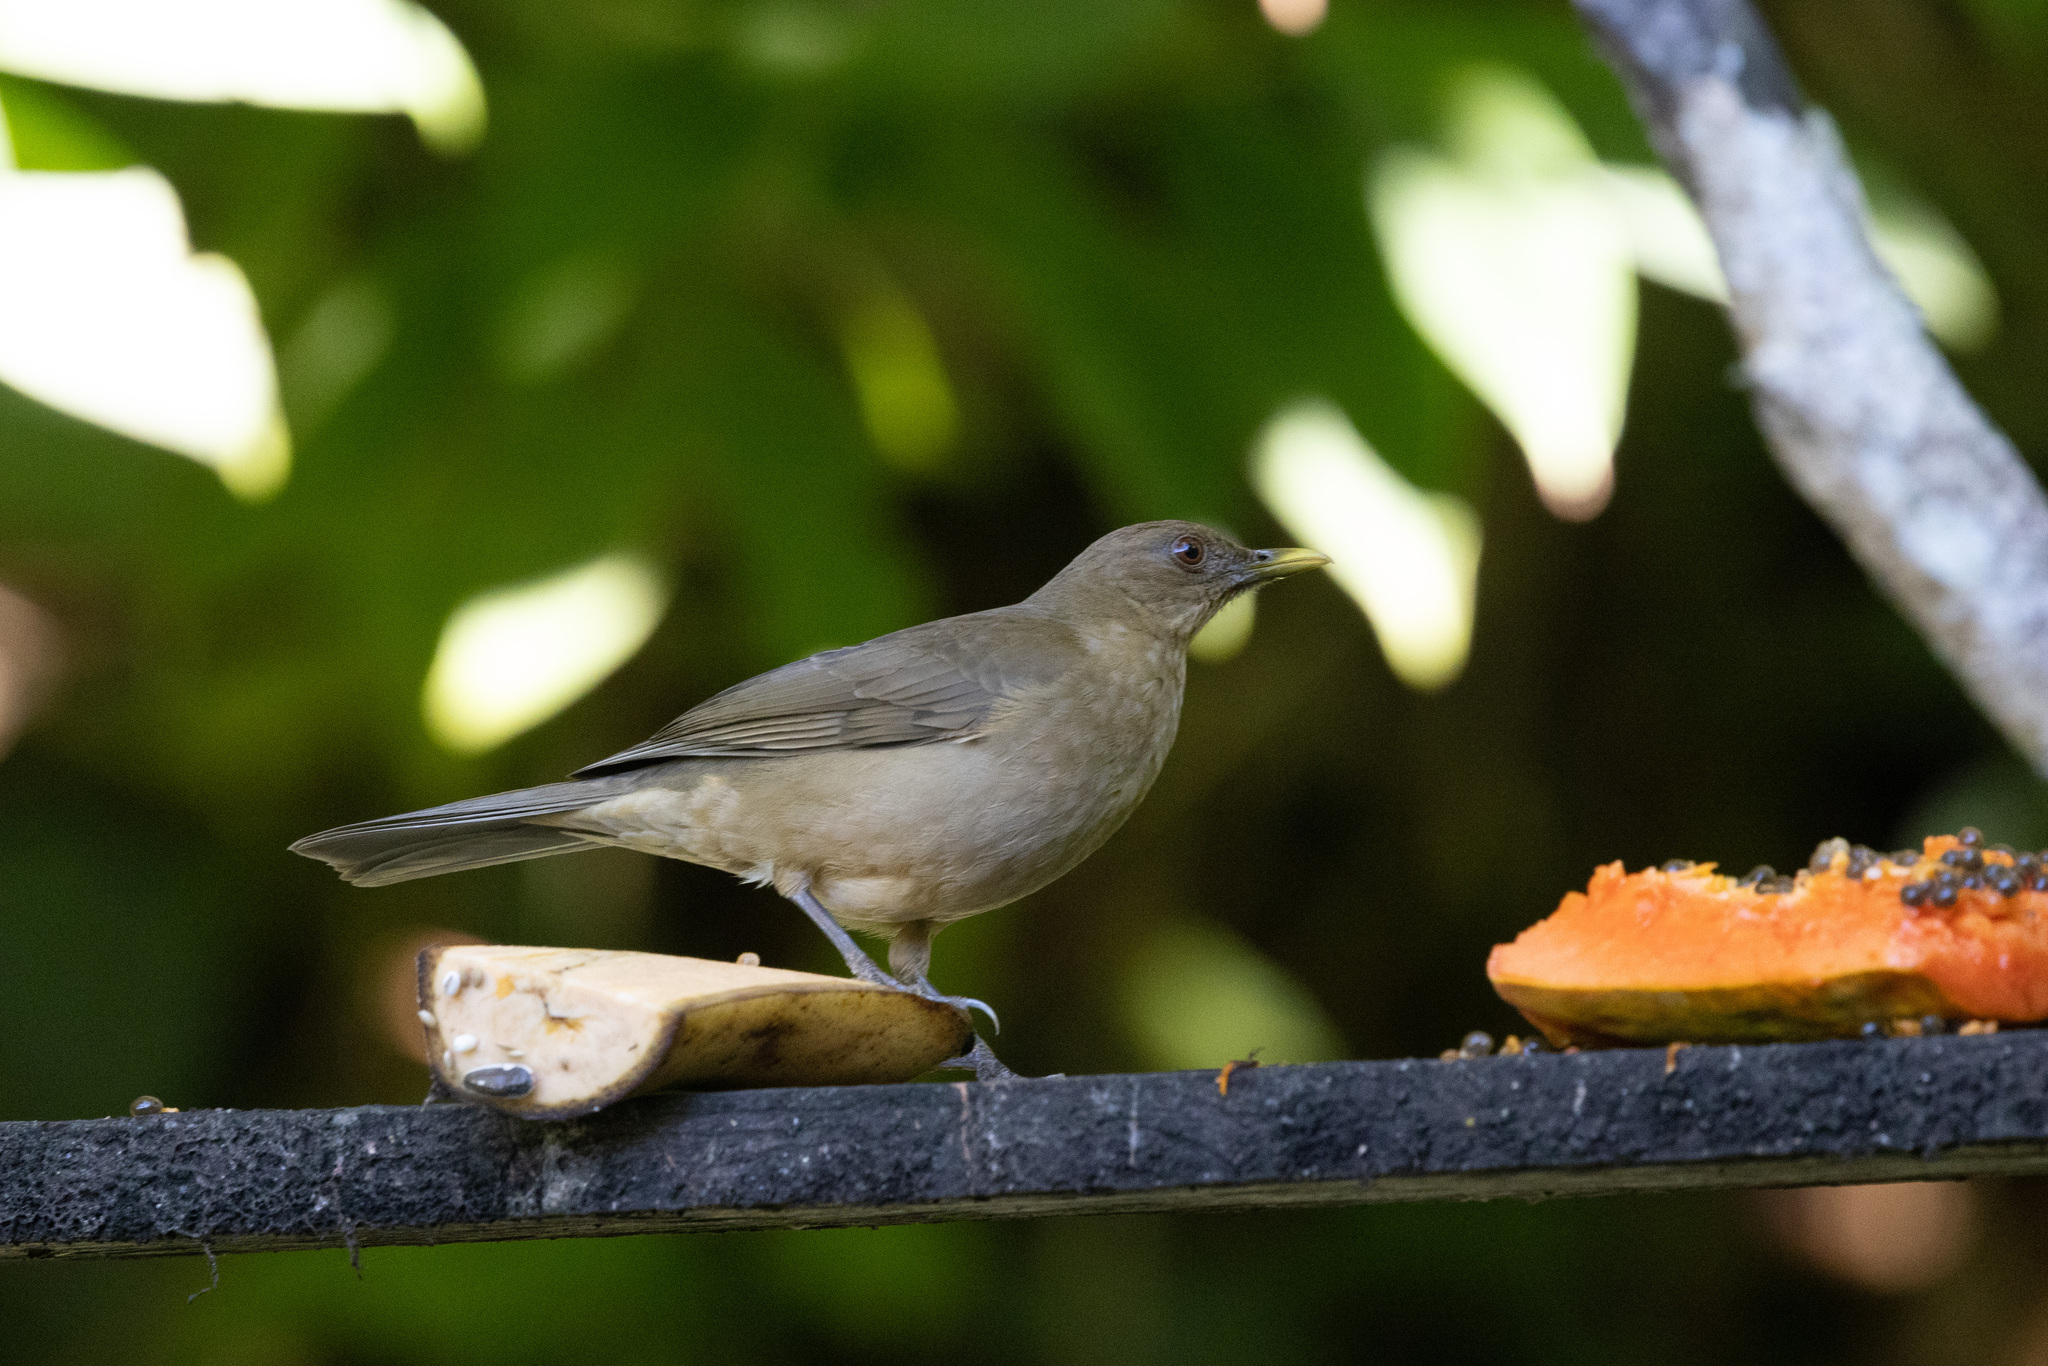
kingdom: Animalia
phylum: Chordata
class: Aves
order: Passeriformes
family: Turdidae
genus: Turdus
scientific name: Turdus grayi
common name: Clay-colored thrush
